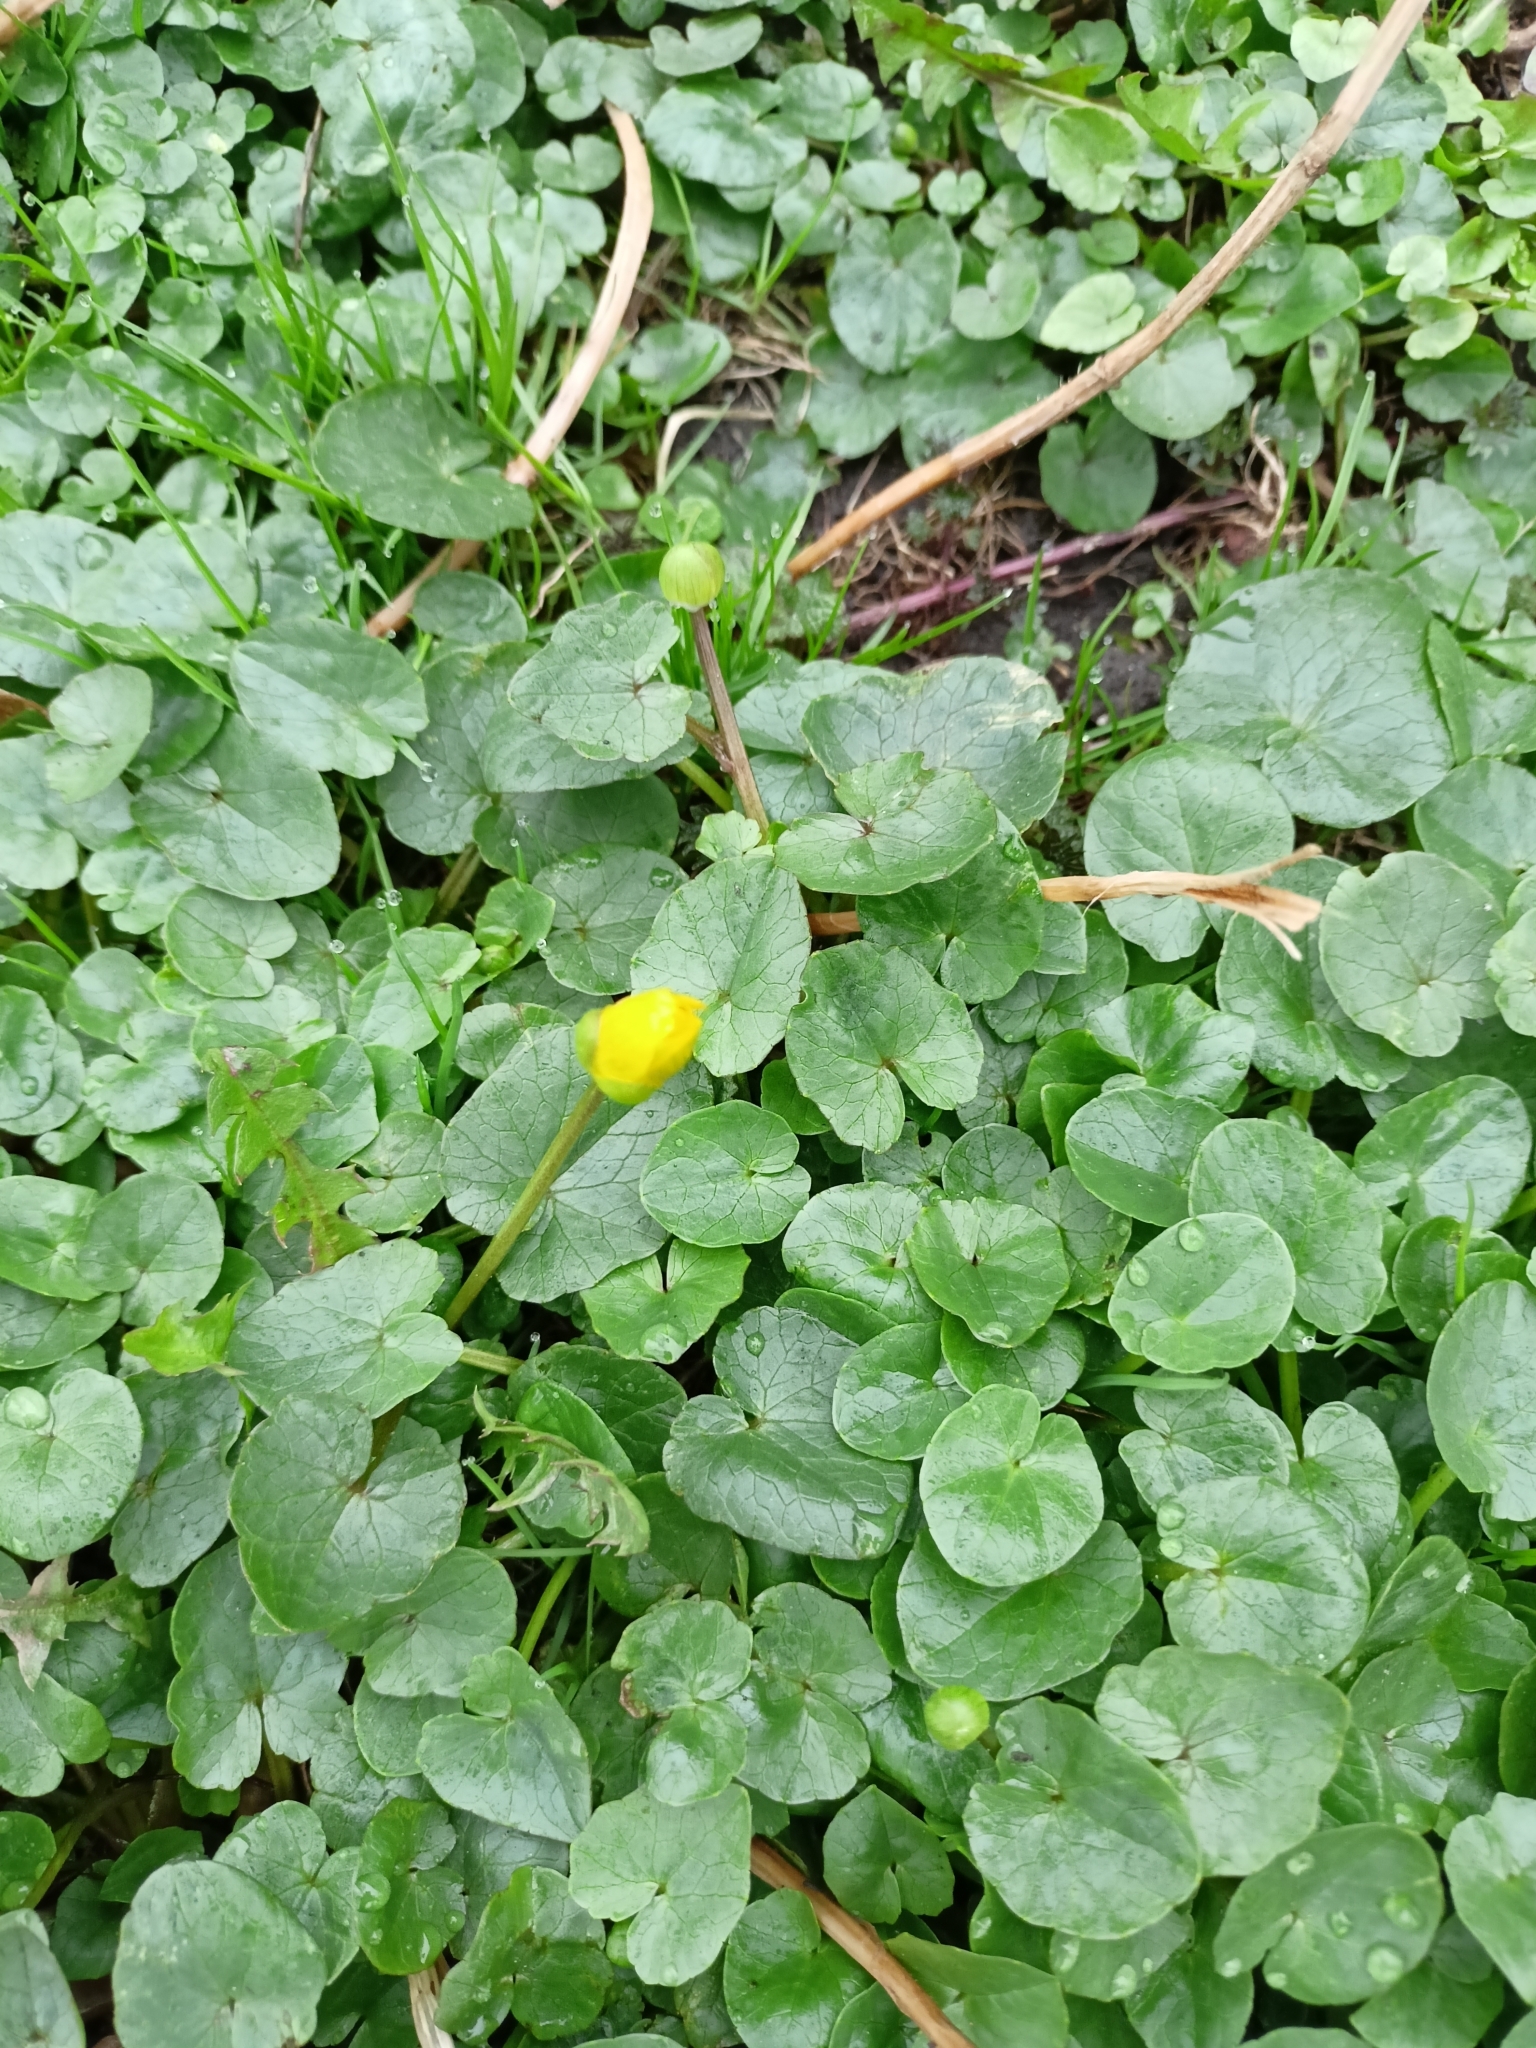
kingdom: Plantae
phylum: Tracheophyta
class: Magnoliopsida
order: Ranunculales
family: Ranunculaceae
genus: Ficaria
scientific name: Ficaria verna
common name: Lesser celandine
